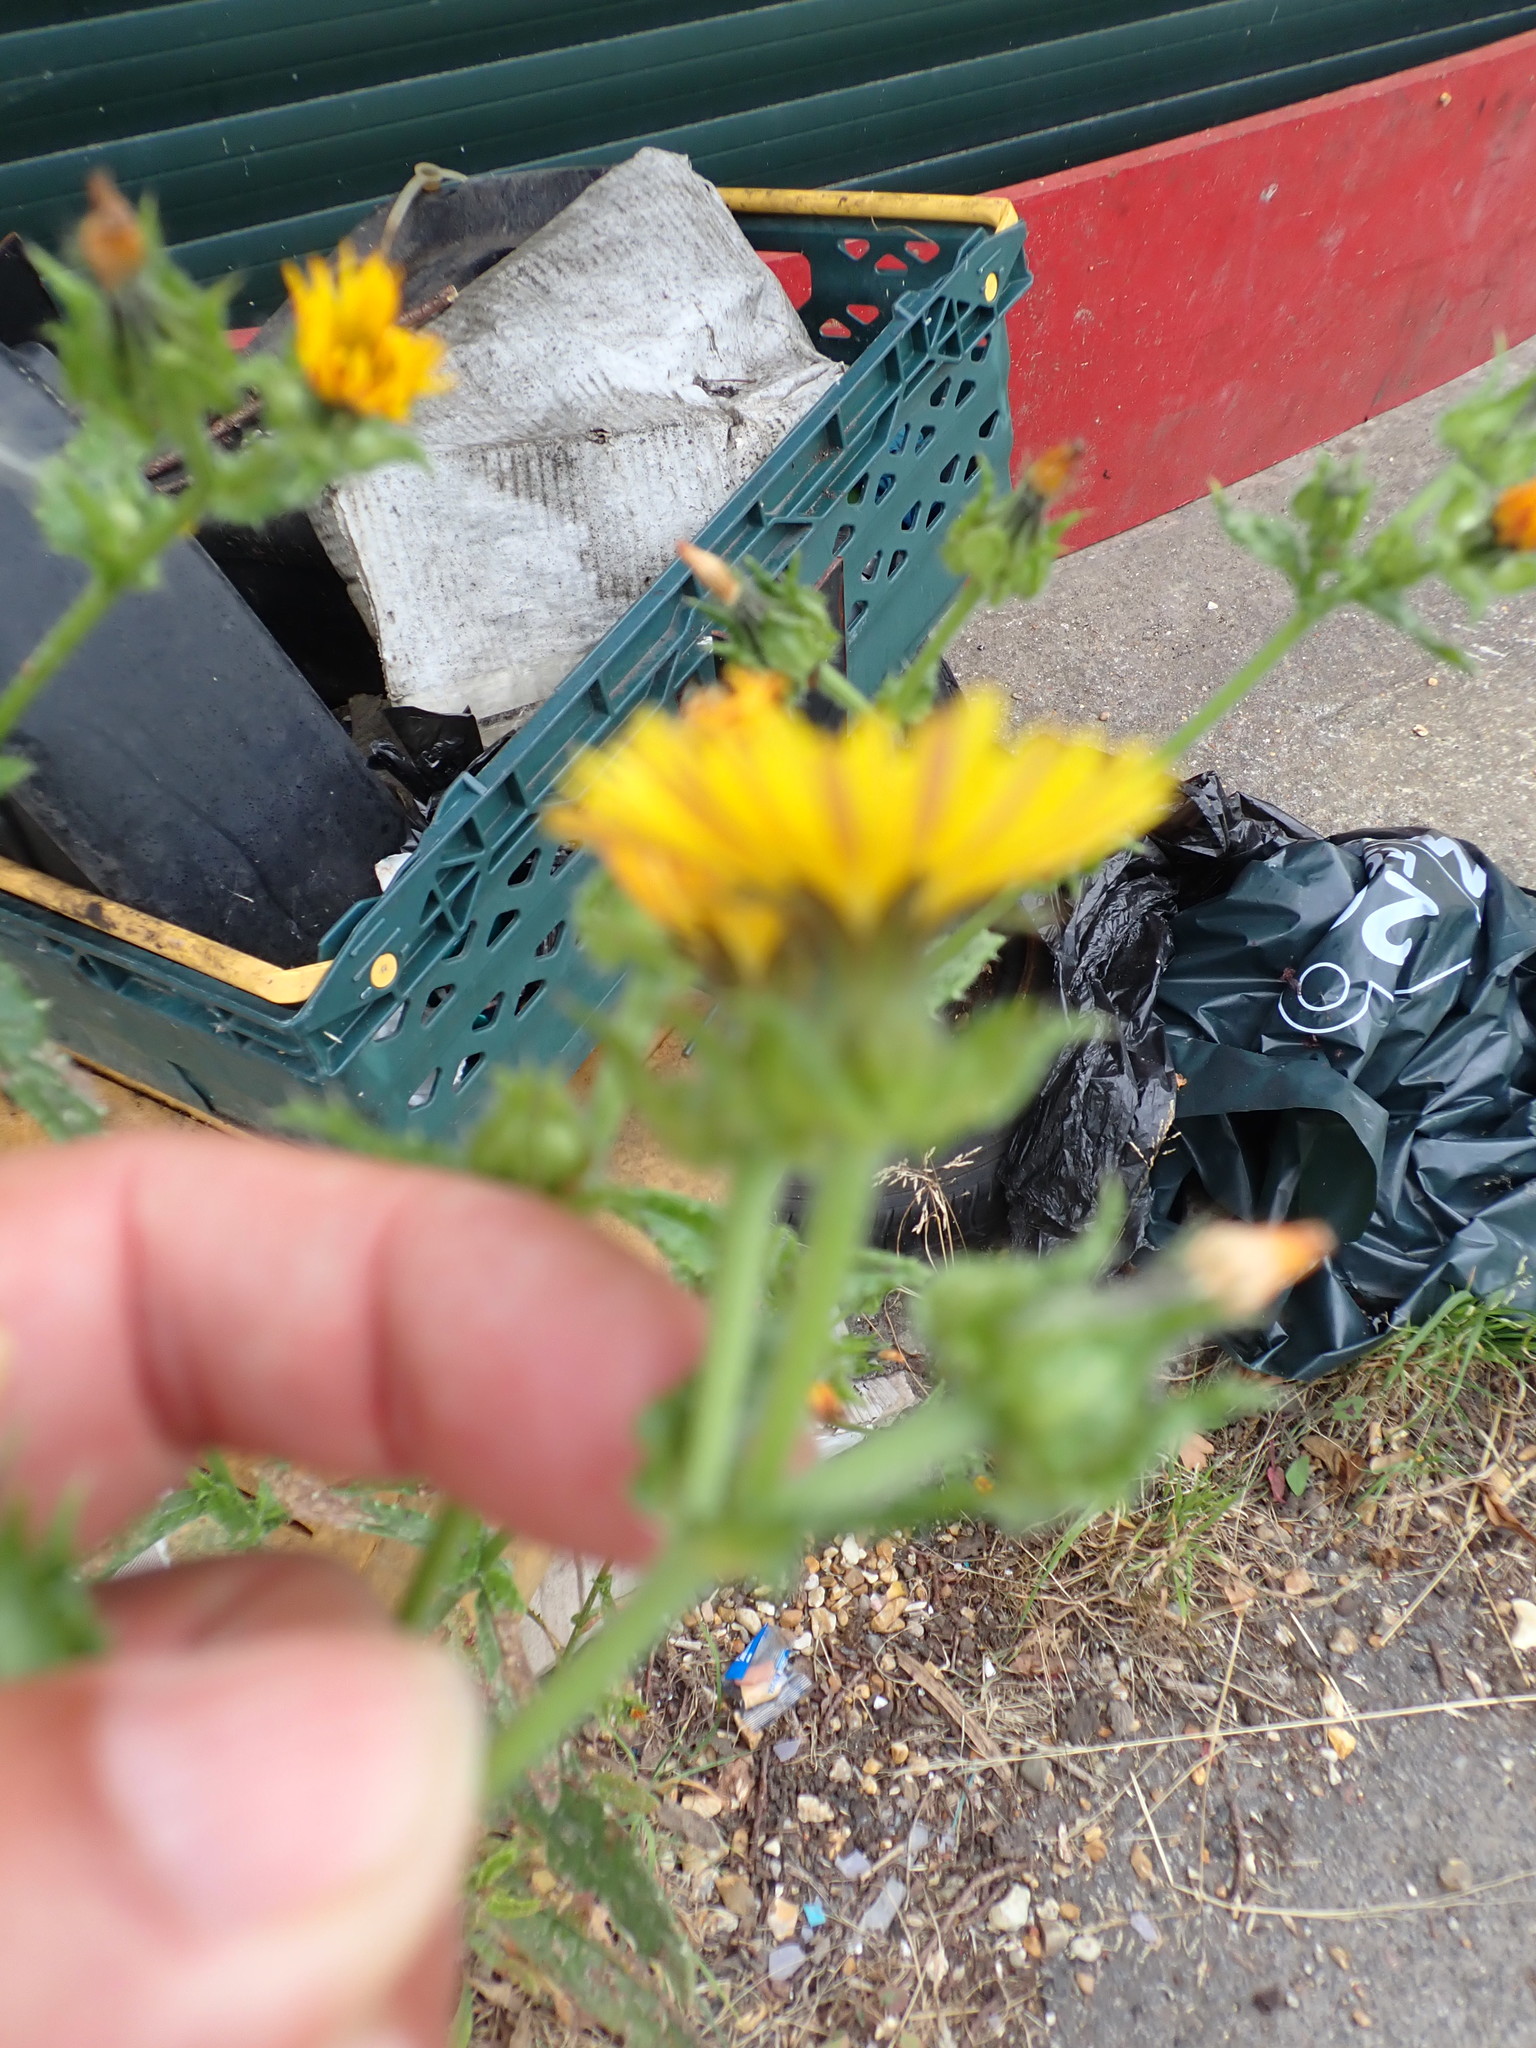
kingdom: Plantae
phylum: Tracheophyta
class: Magnoliopsida
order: Asterales
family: Asteraceae
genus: Helminthotheca
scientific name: Helminthotheca echioides
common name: Ox-tongue
